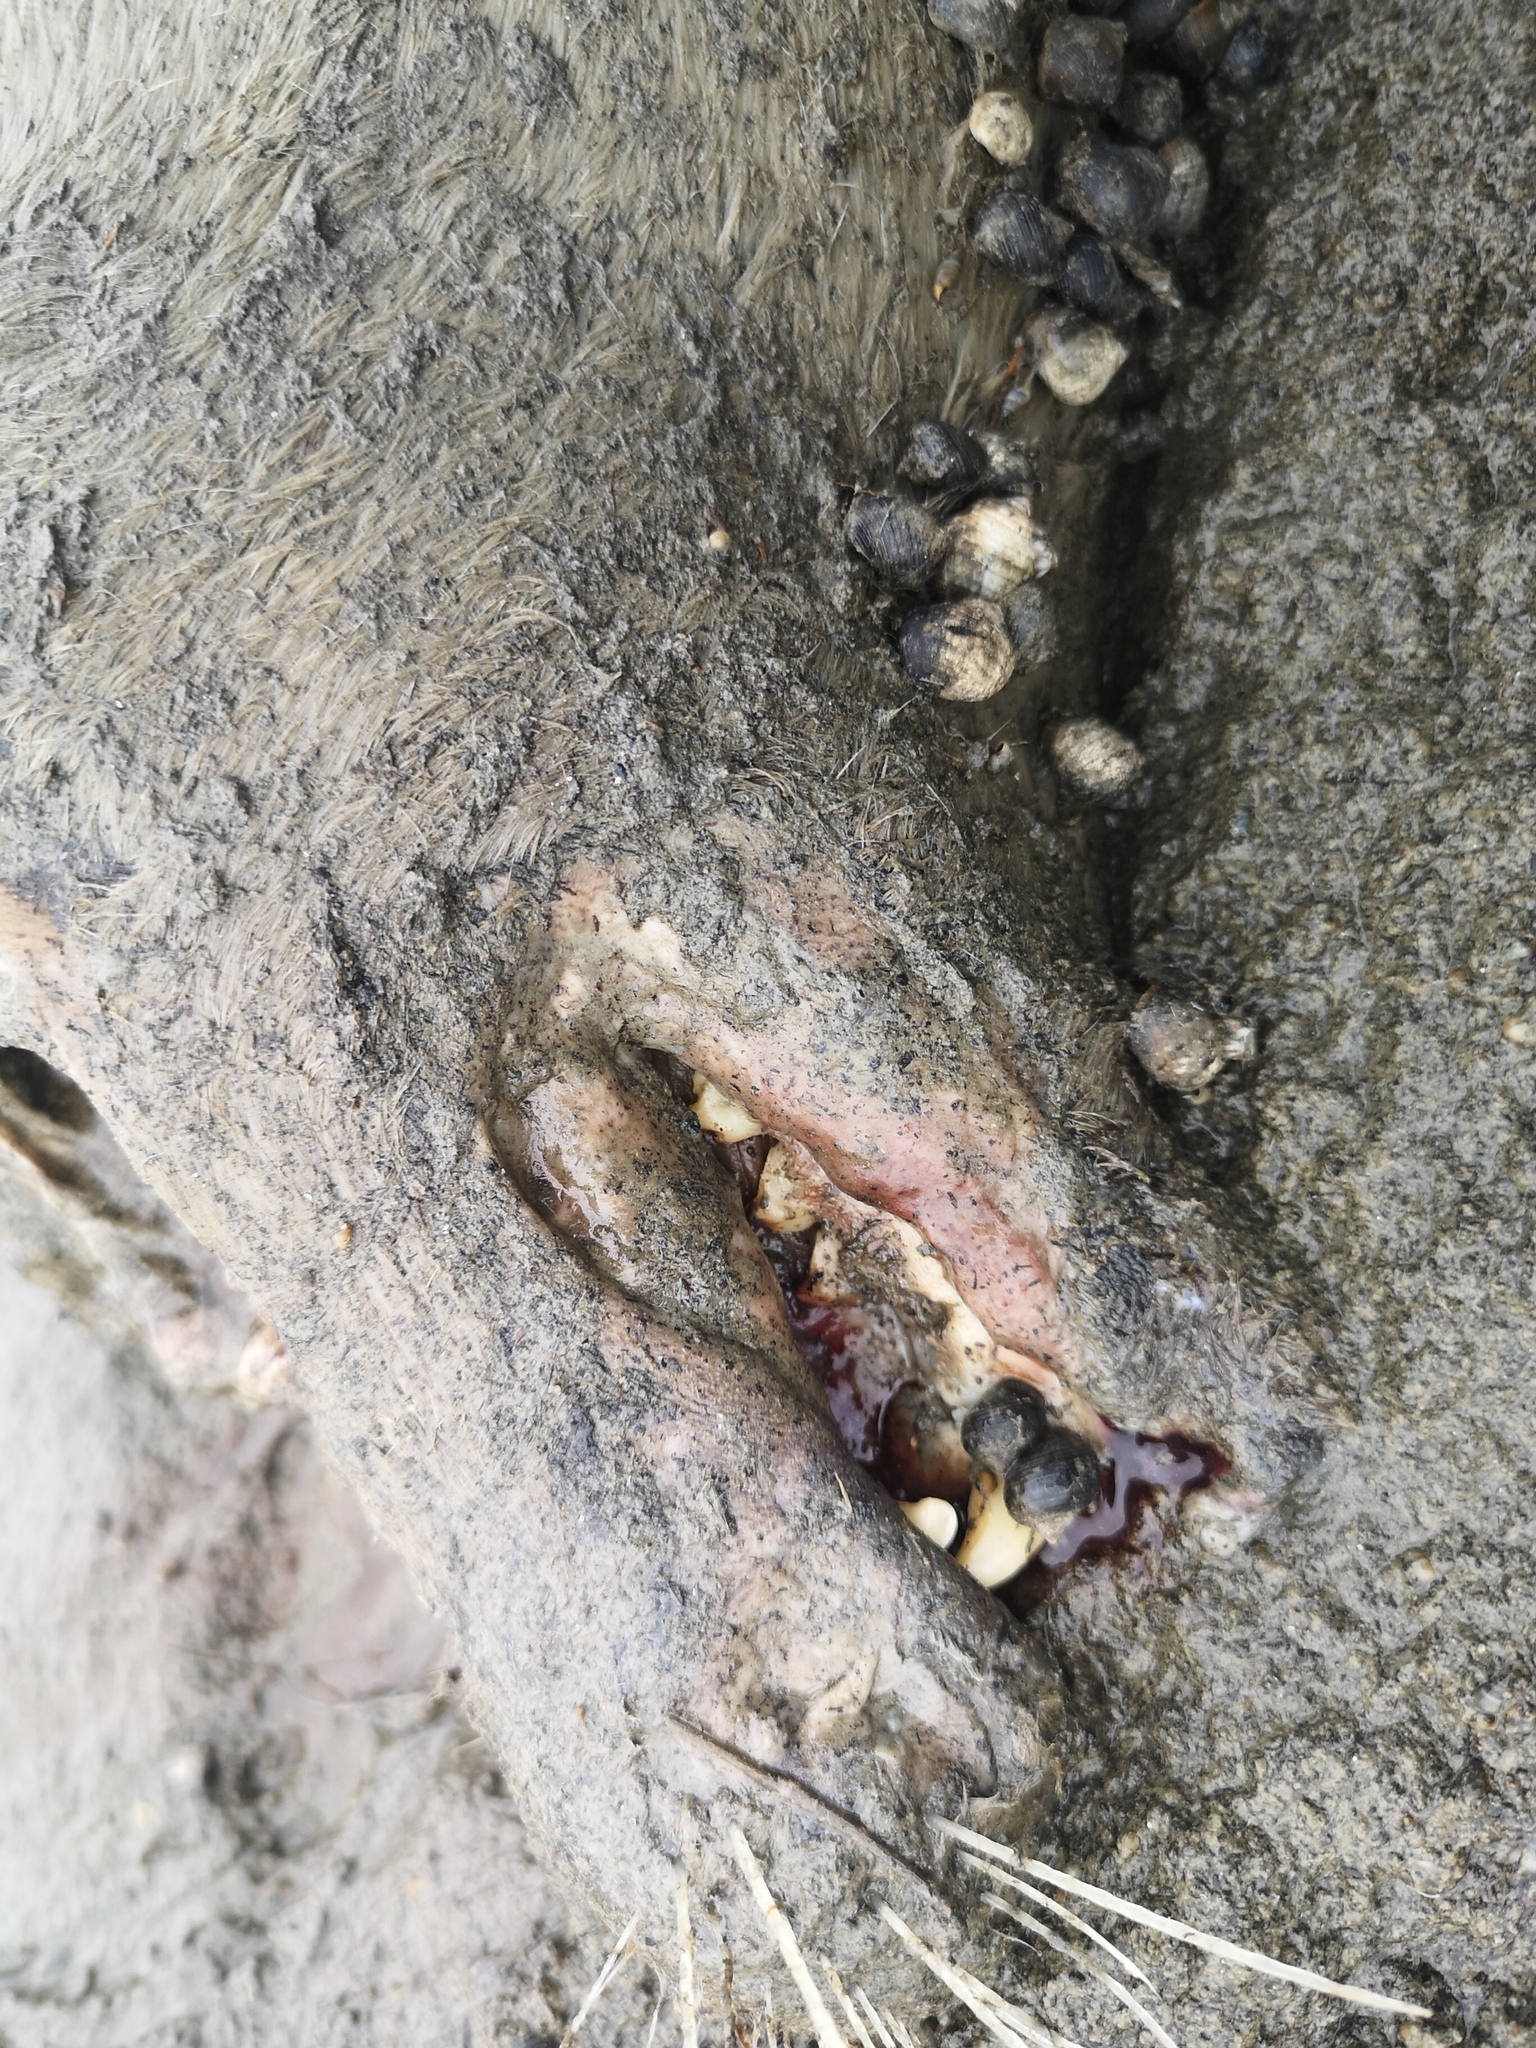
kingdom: Animalia
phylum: Chordata
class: Mammalia
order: Carnivora
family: Phocidae
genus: Phoca
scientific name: Phoca vitulina
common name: Harbor seal
